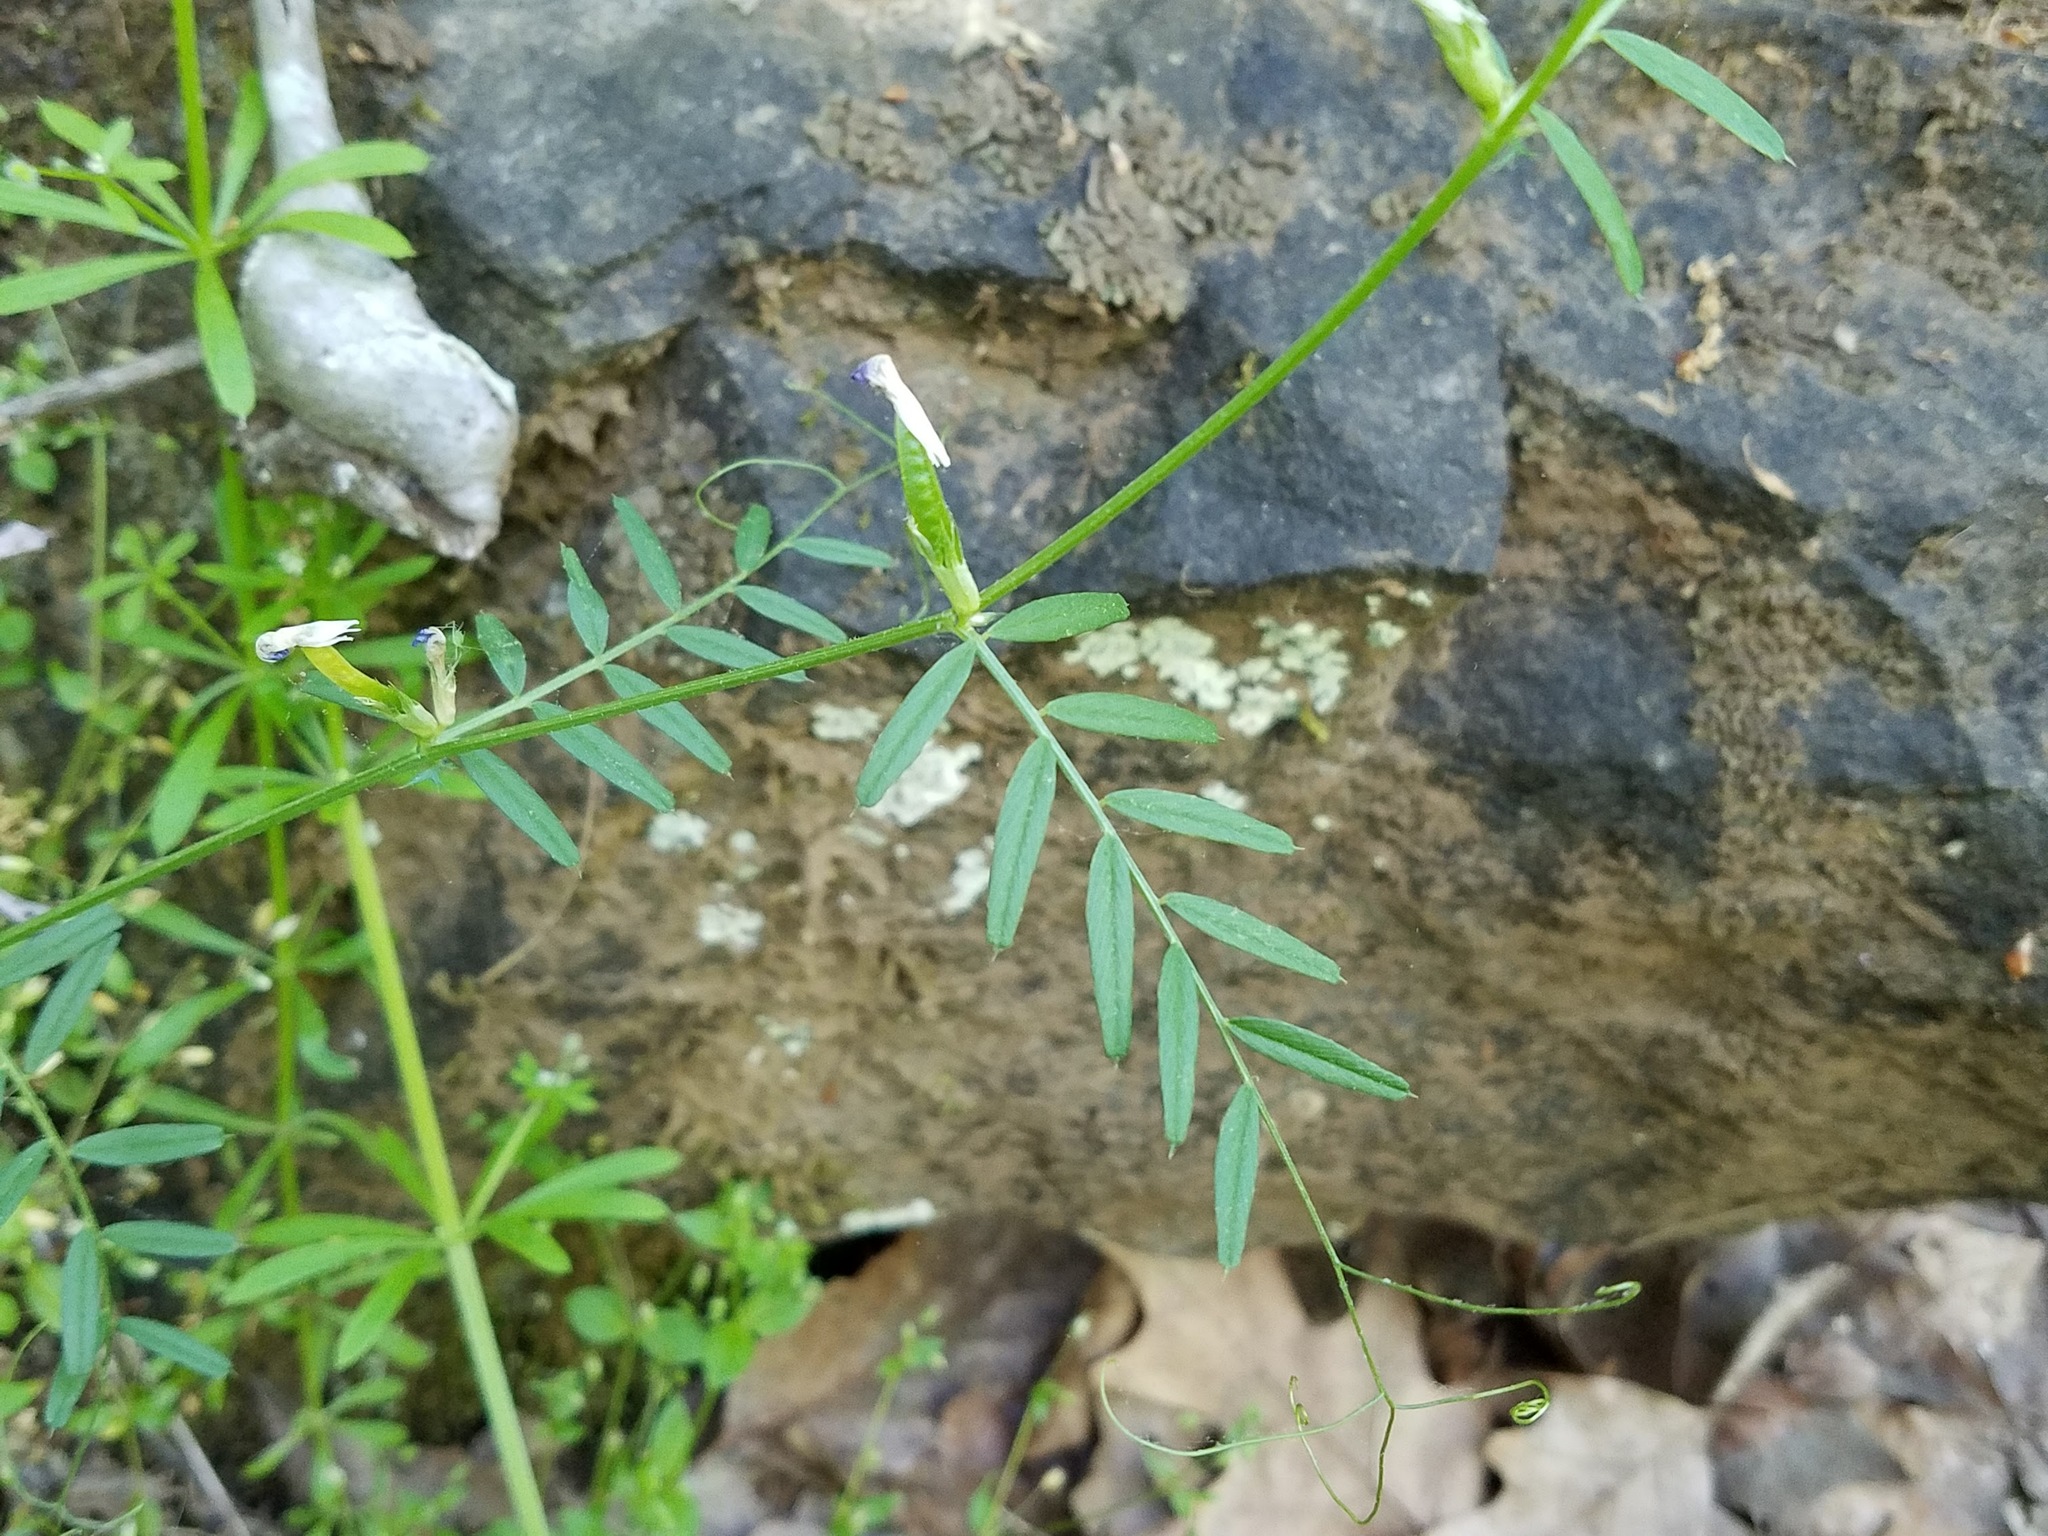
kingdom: Plantae
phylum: Tracheophyta
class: Magnoliopsida
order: Fabales
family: Fabaceae
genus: Vicia
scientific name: Vicia sativa
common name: Garden vetch
